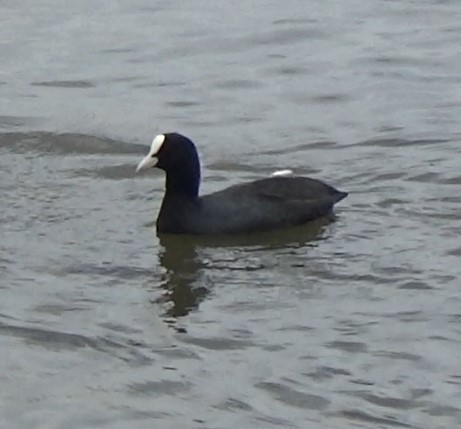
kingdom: Animalia
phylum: Chordata
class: Aves
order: Gruiformes
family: Rallidae
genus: Fulica
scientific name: Fulica atra
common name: Eurasian coot
